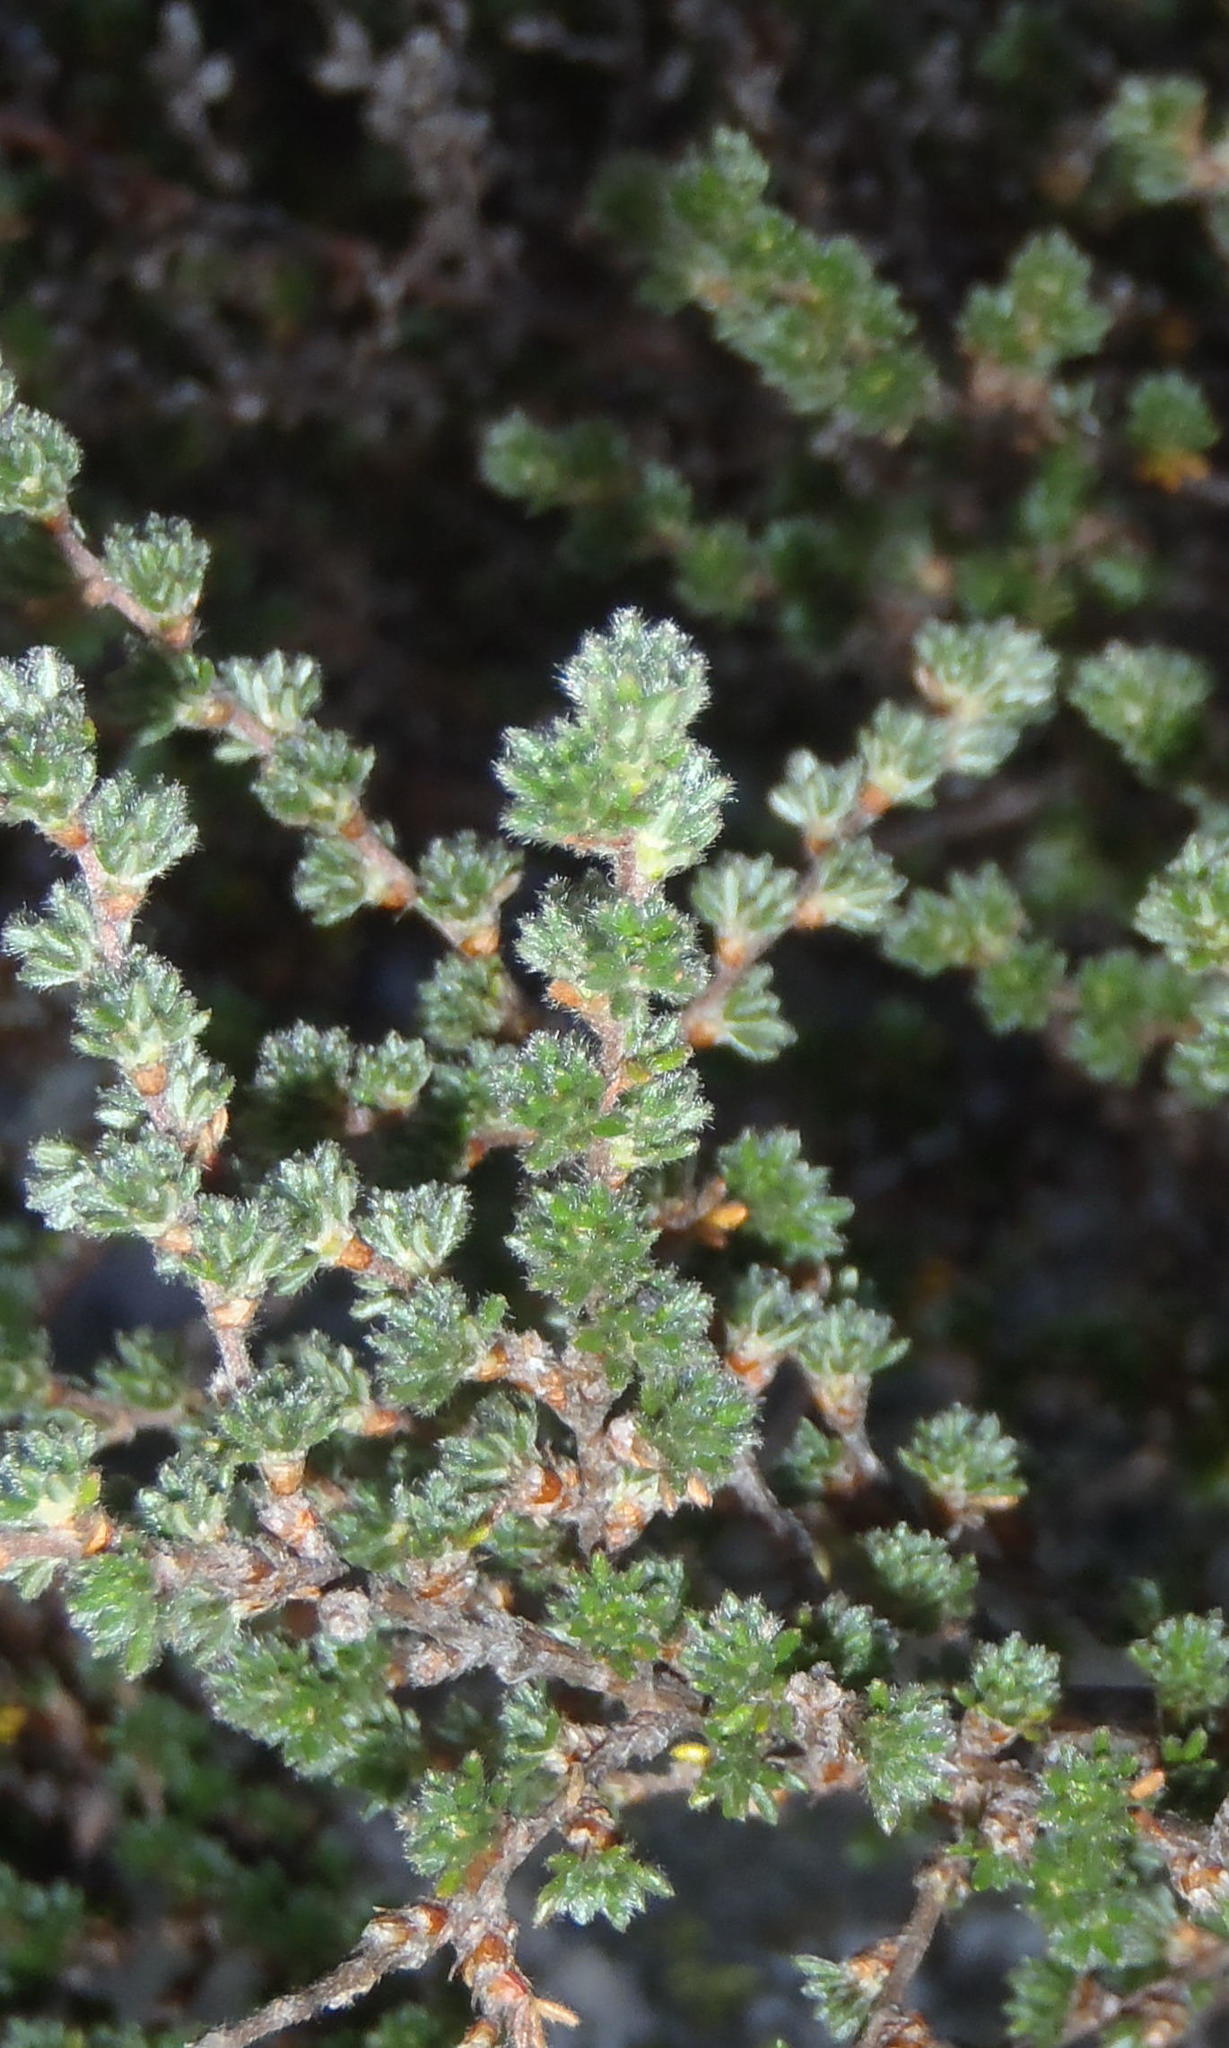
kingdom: Plantae
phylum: Tracheophyta
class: Magnoliopsida
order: Rosales
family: Rosaceae
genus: Cliffortia
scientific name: Cliffortia eriocephalina
